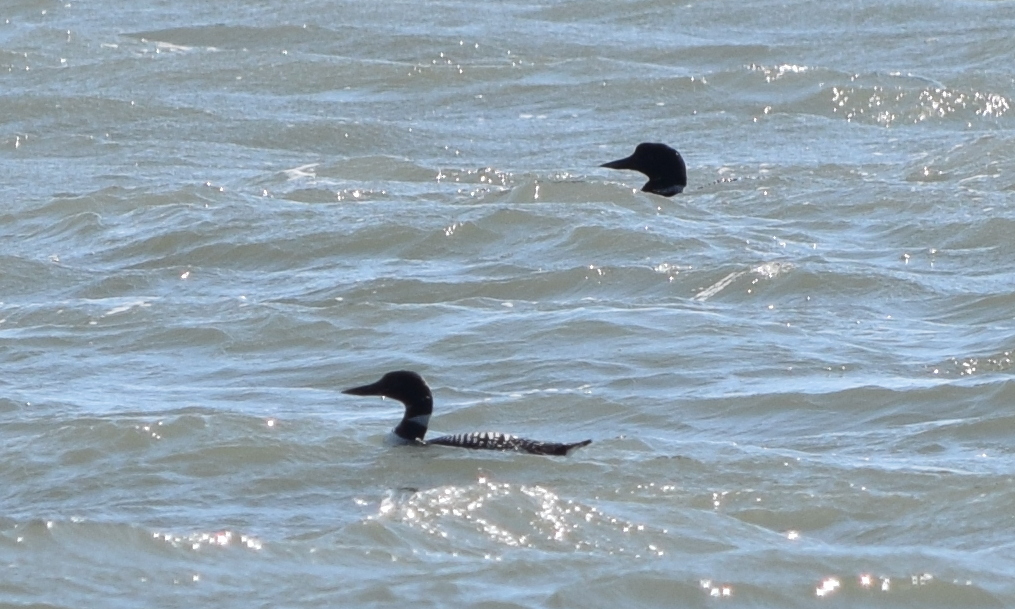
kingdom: Animalia
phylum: Chordata
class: Aves
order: Gaviiformes
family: Gaviidae
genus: Gavia
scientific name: Gavia immer
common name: Common loon
